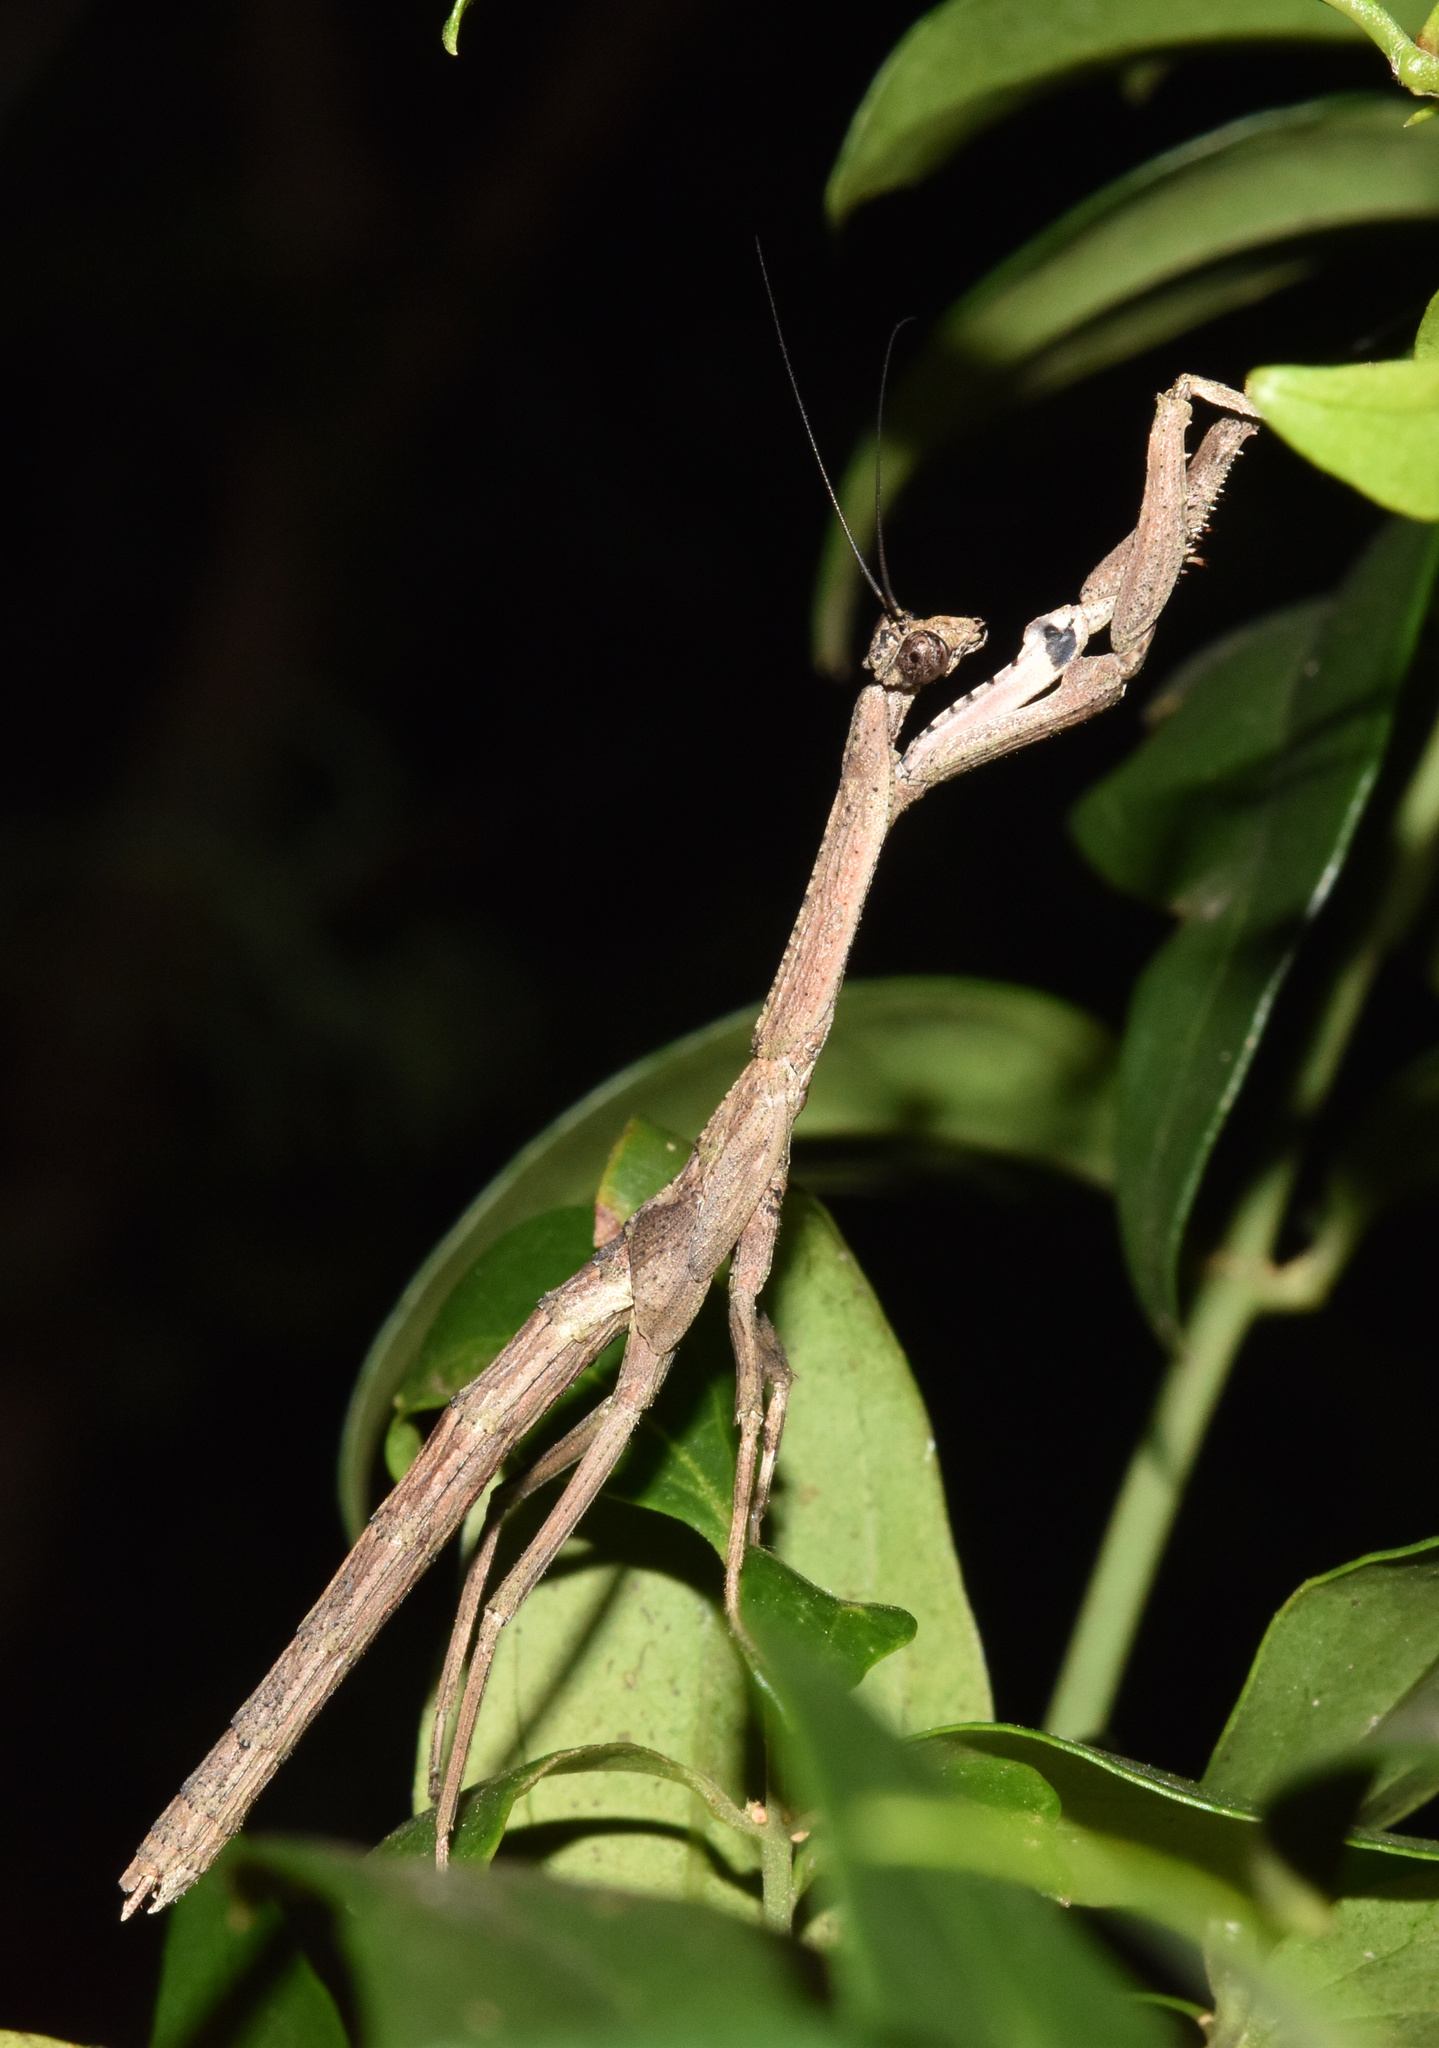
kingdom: Animalia
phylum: Arthropoda
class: Insecta
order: Mantodea
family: Deroplatyidae
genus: Popa
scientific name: Popa spurca
